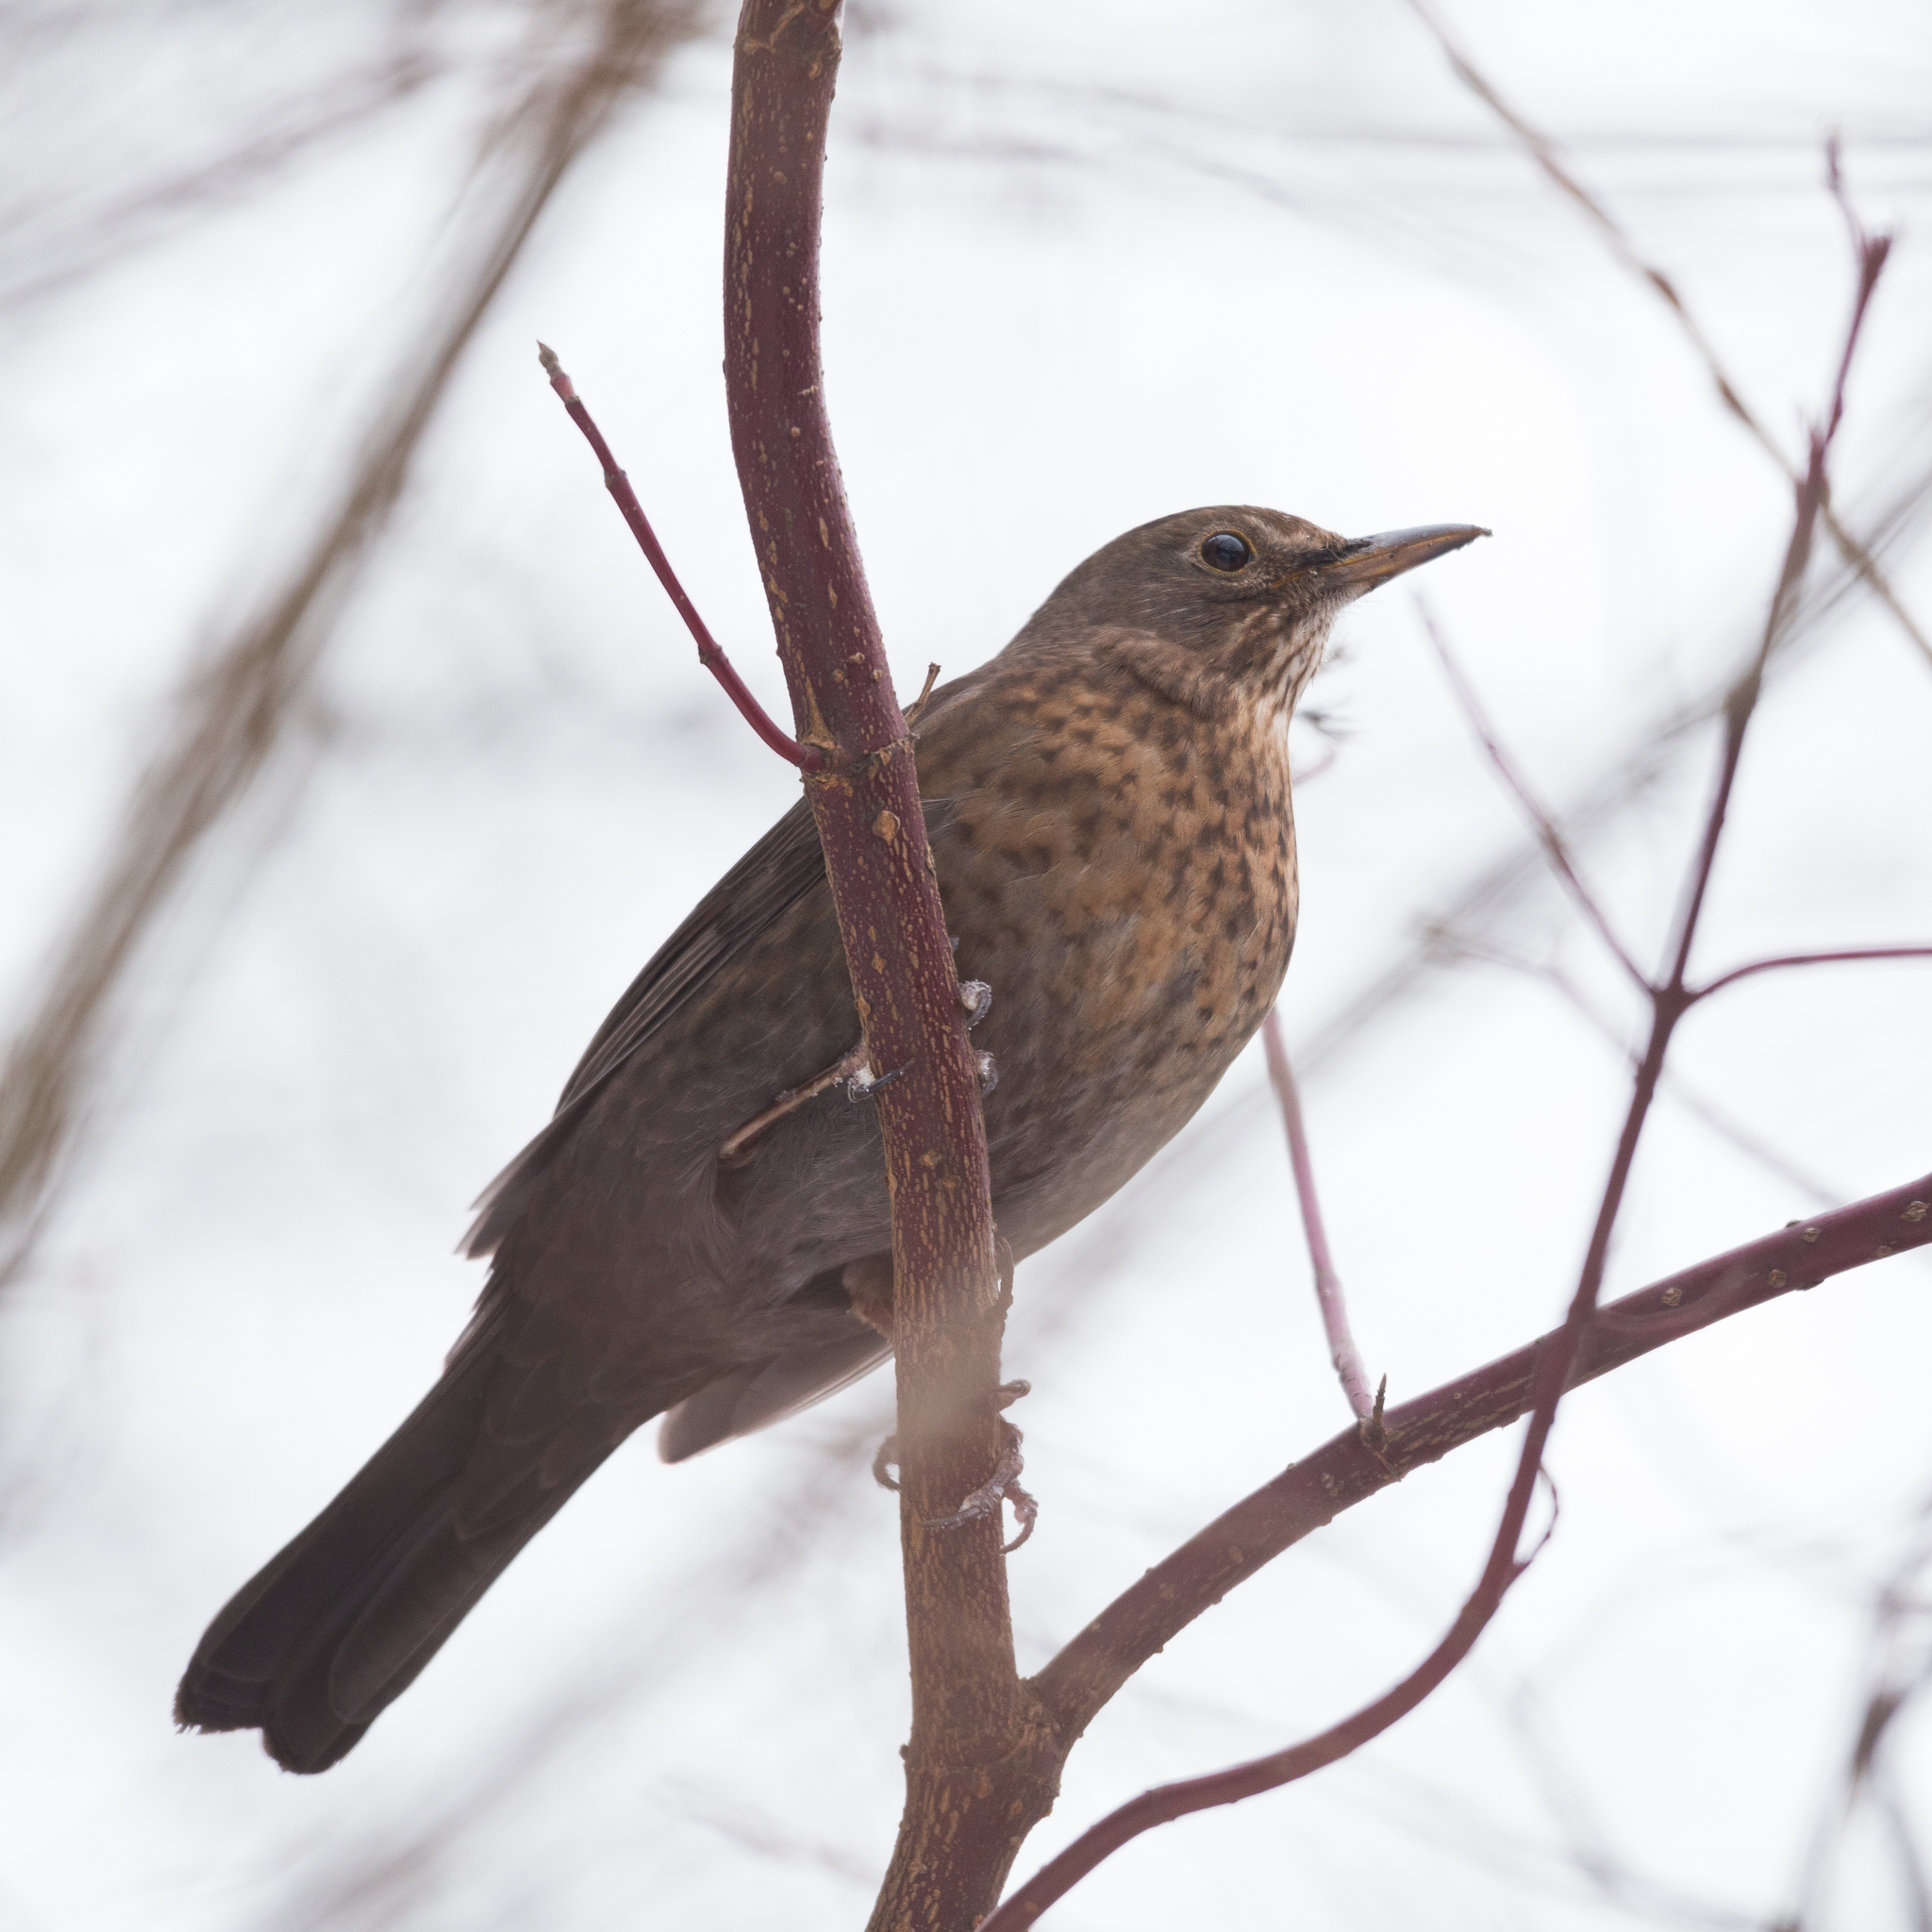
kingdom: Animalia
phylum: Chordata
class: Aves
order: Passeriformes
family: Turdidae
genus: Turdus
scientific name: Turdus merula
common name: Common blackbird
